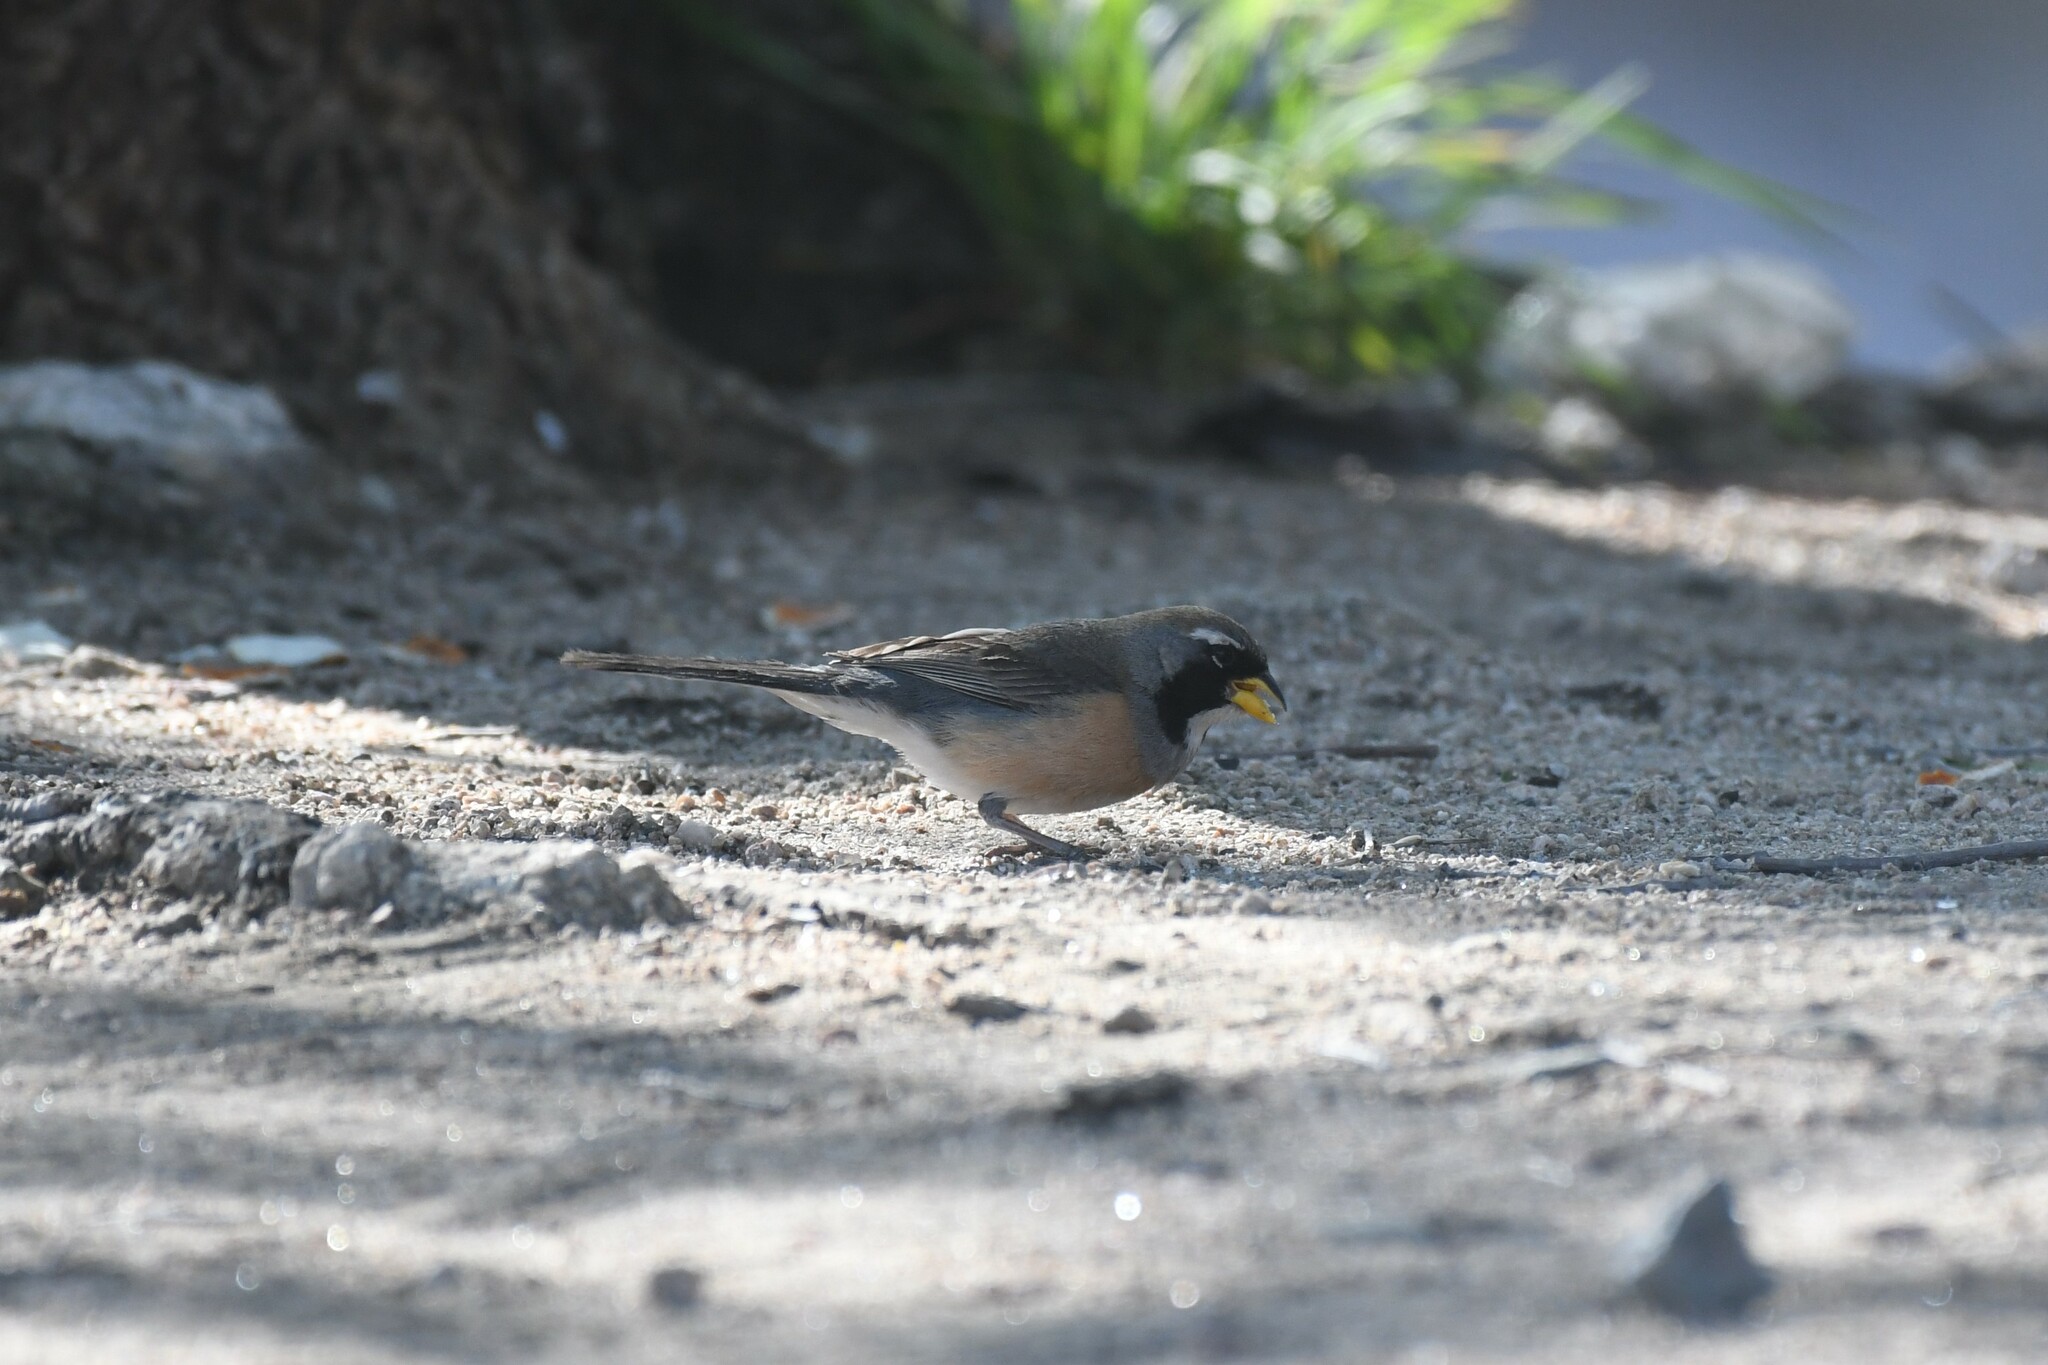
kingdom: Animalia
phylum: Chordata
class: Aves
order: Passeriformes
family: Thraupidae
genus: Saltatricula
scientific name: Saltatricula multicolor
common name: Many-colored chaco finch
